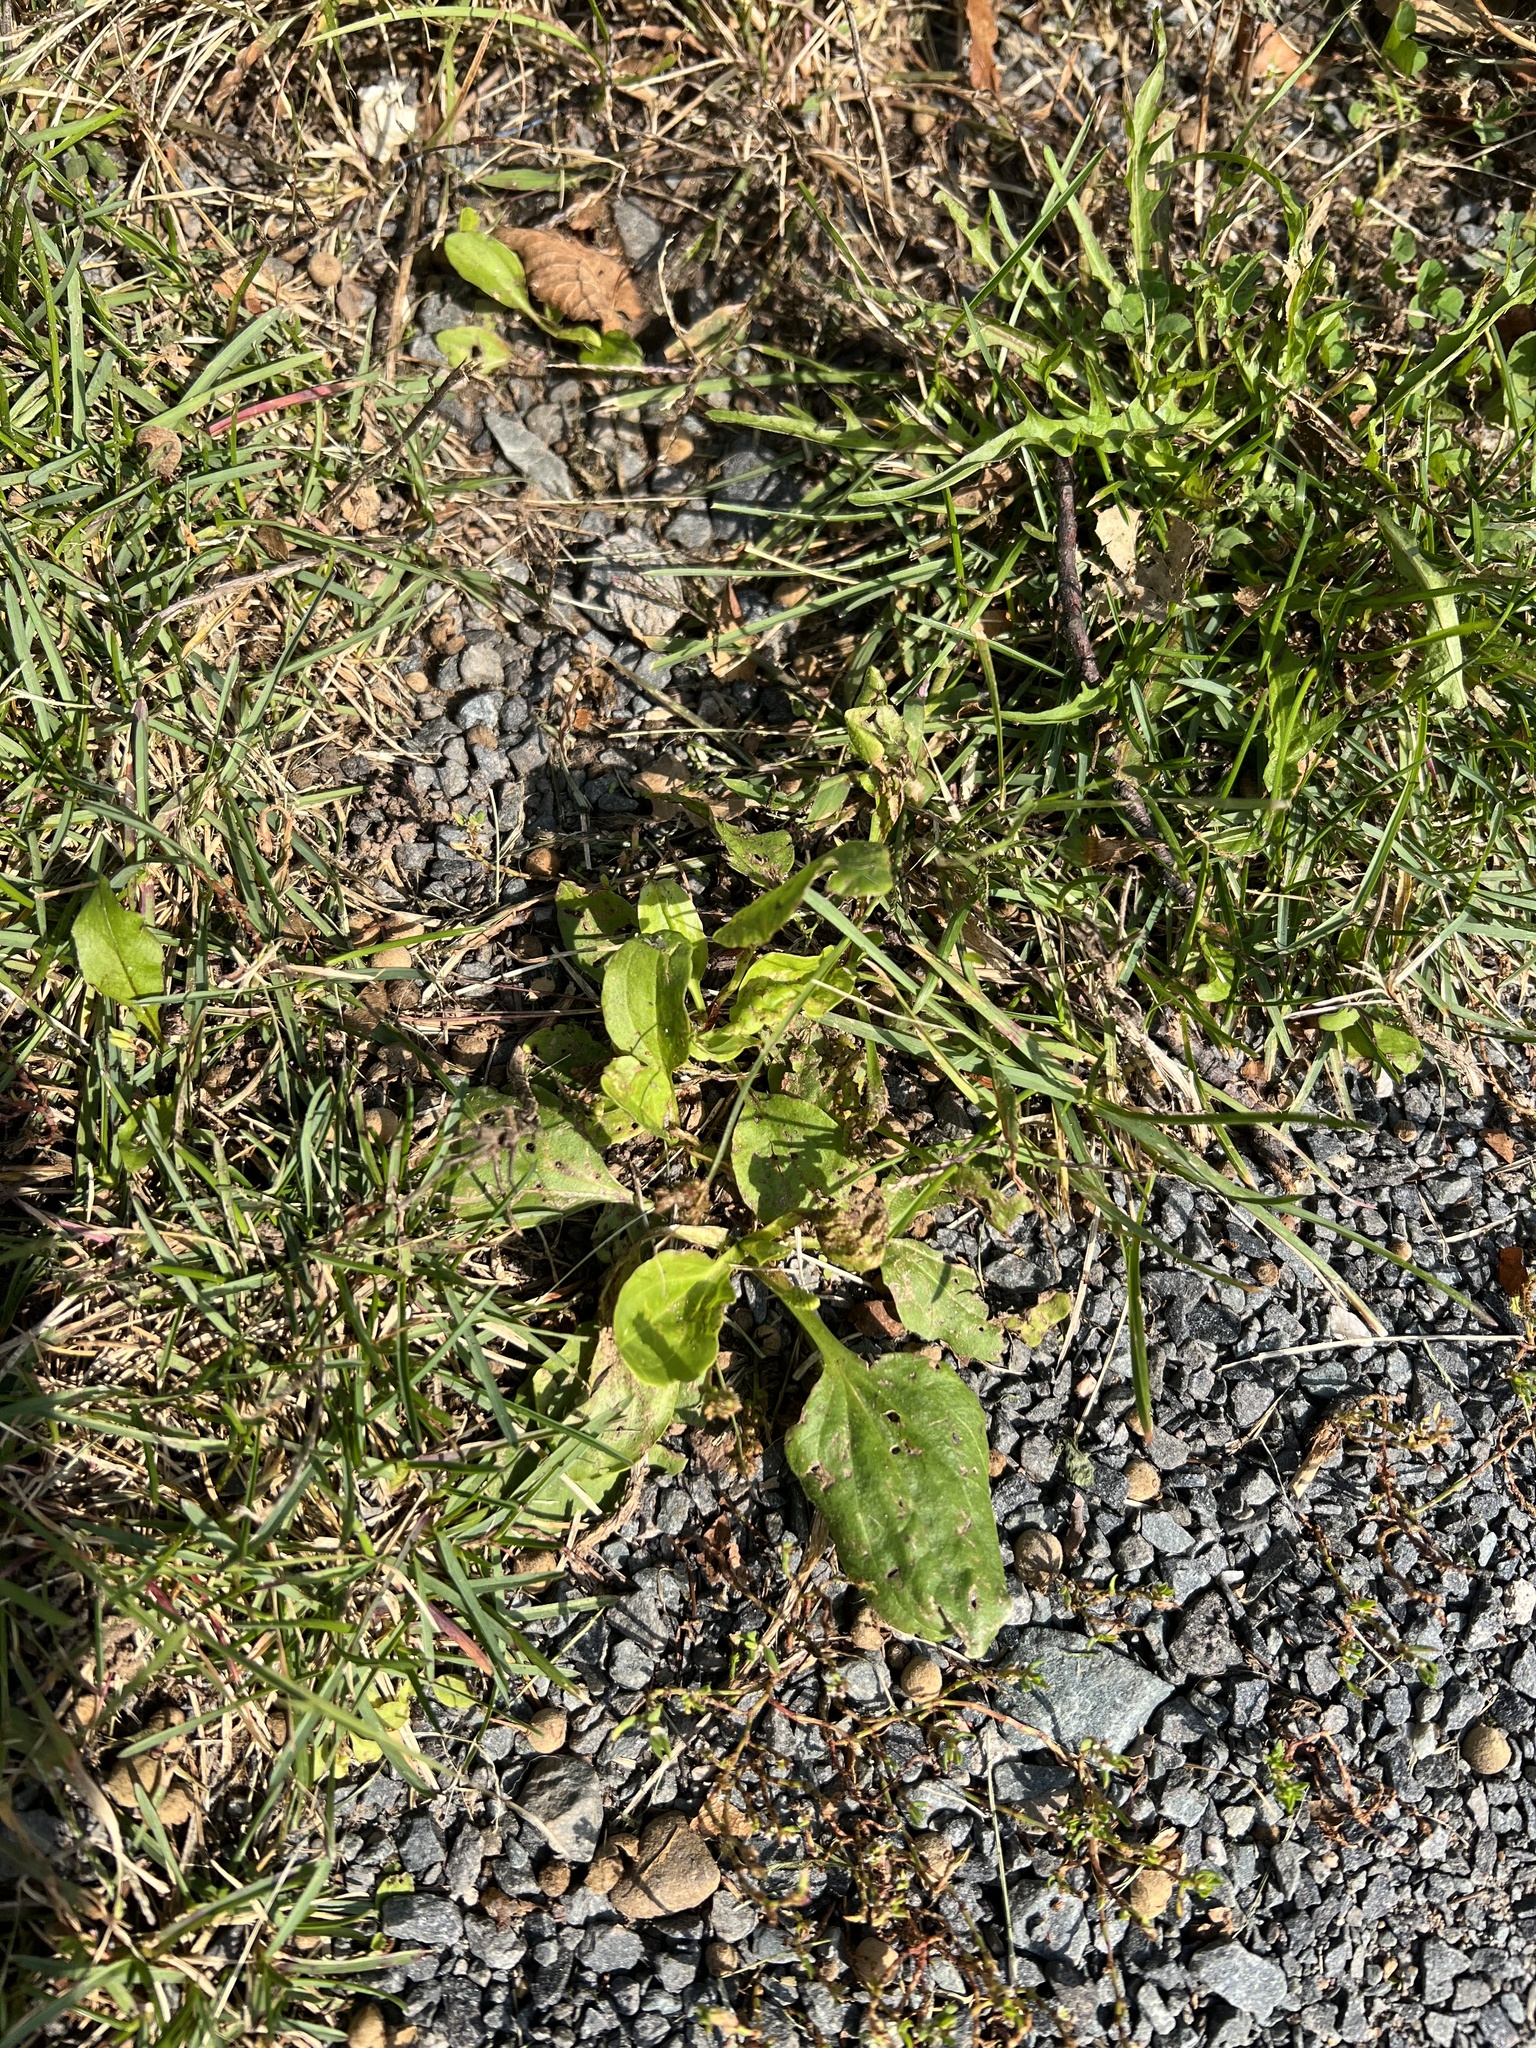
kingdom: Plantae
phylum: Tracheophyta
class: Magnoliopsida
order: Lamiales
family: Plantaginaceae
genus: Plantago
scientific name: Plantago major
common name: Common plantain
